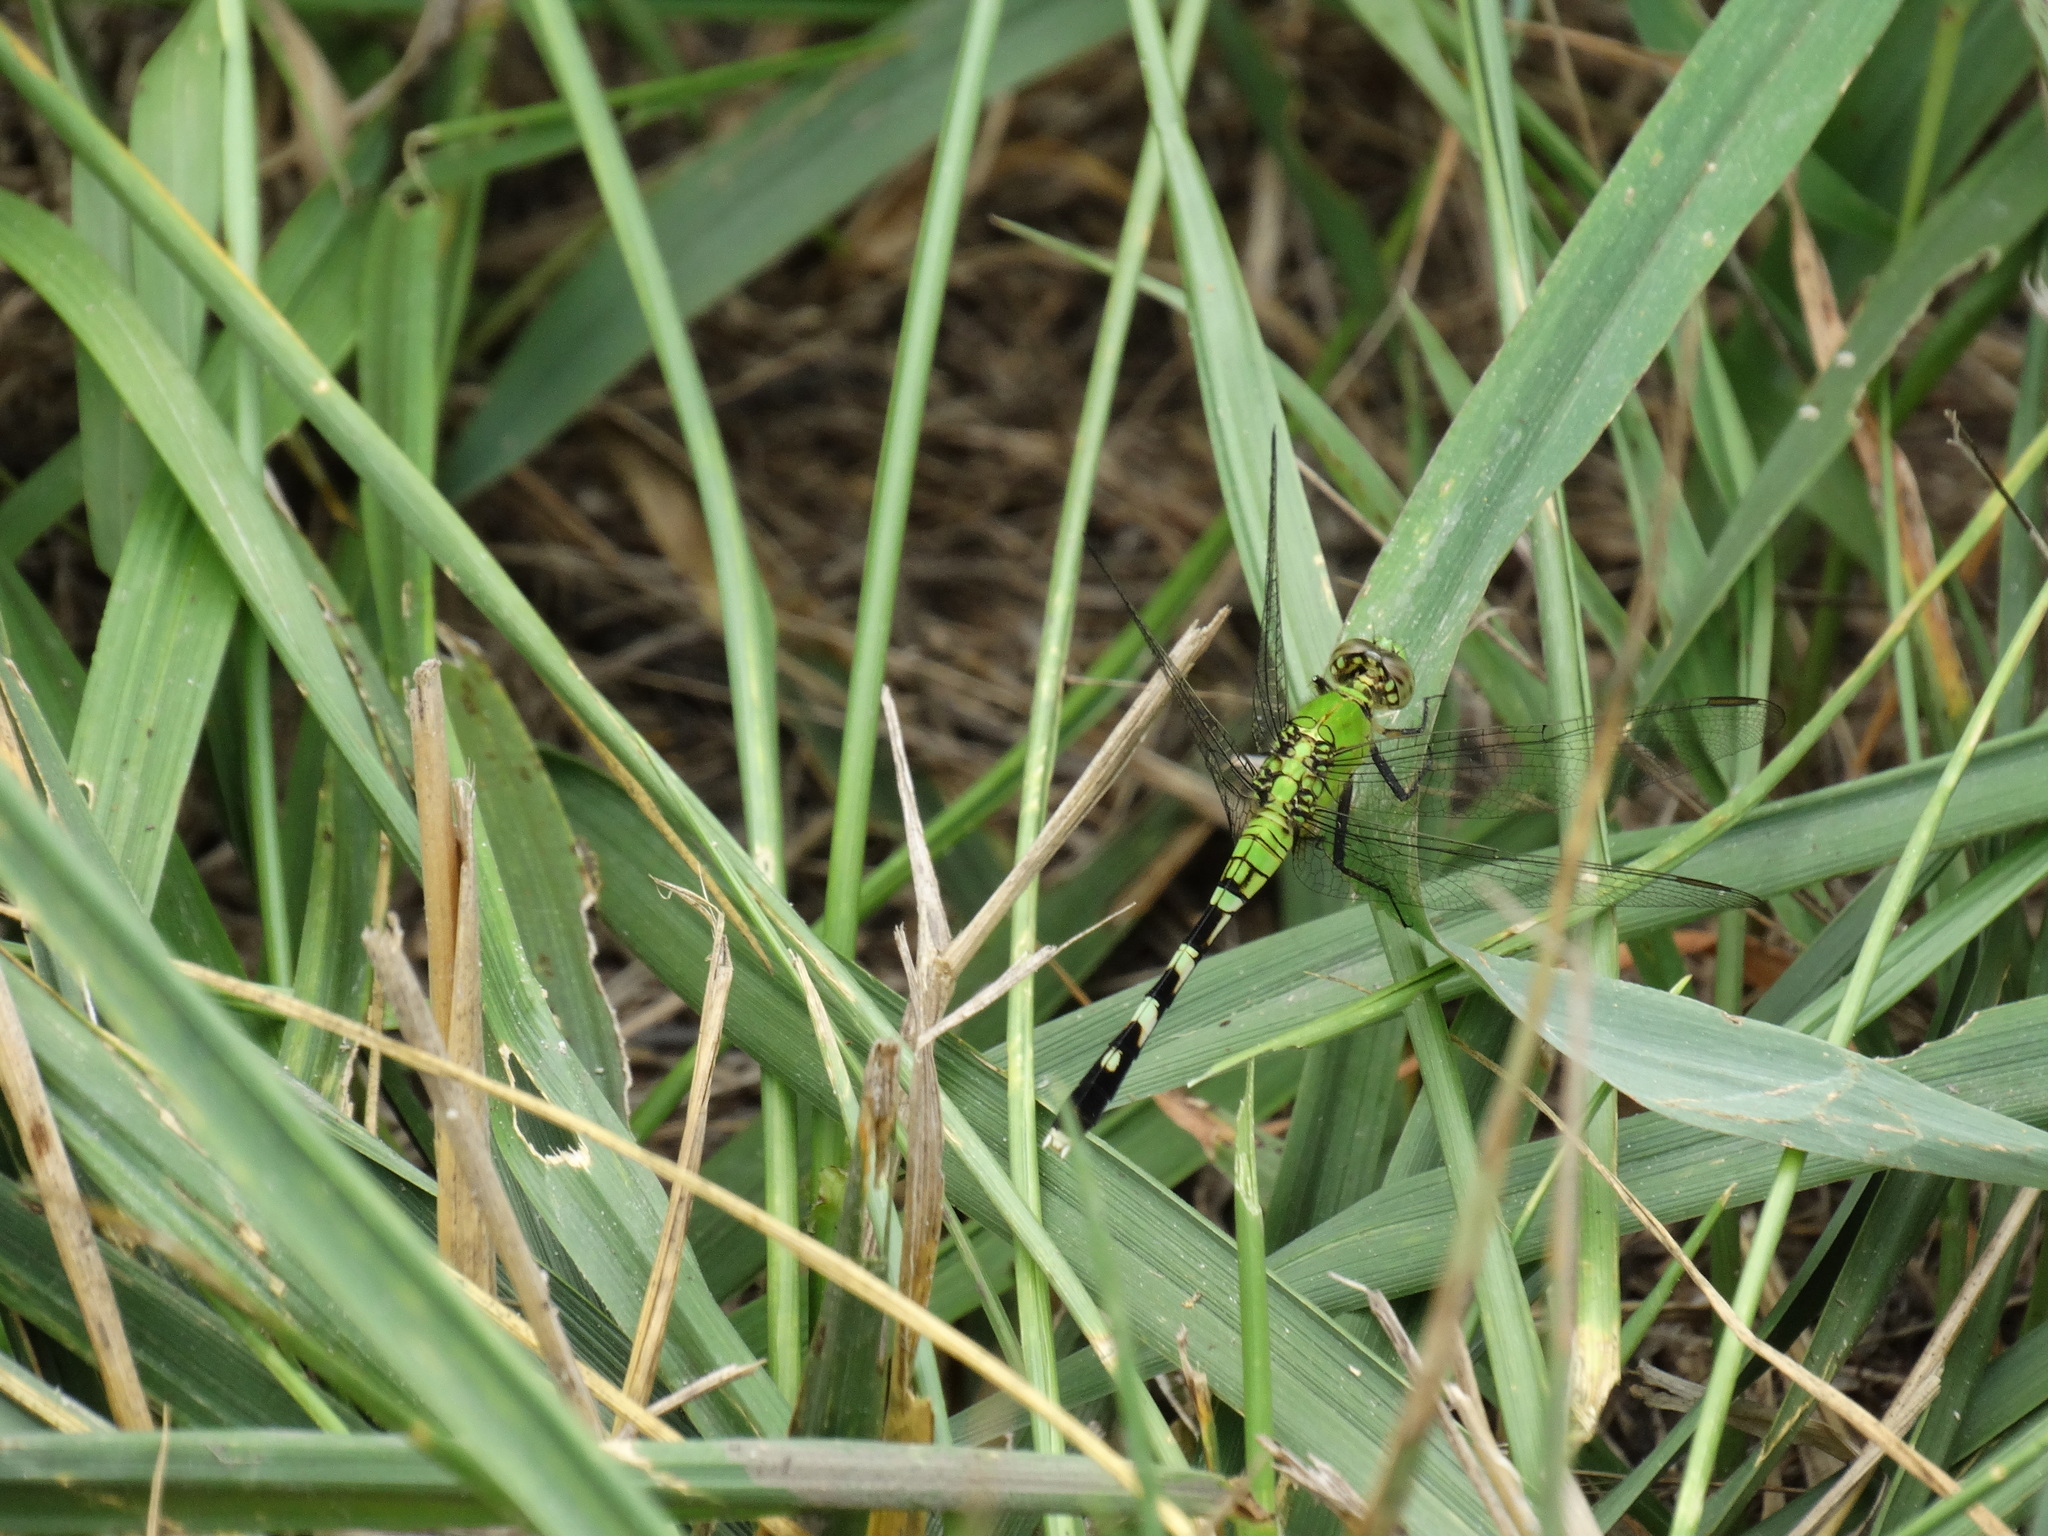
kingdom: Animalia
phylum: Arthropoda
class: Insecta
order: Odonata
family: Libellulidae
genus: Erythemis
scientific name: Erythemis simplicicollis
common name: Eastern pondhawk
